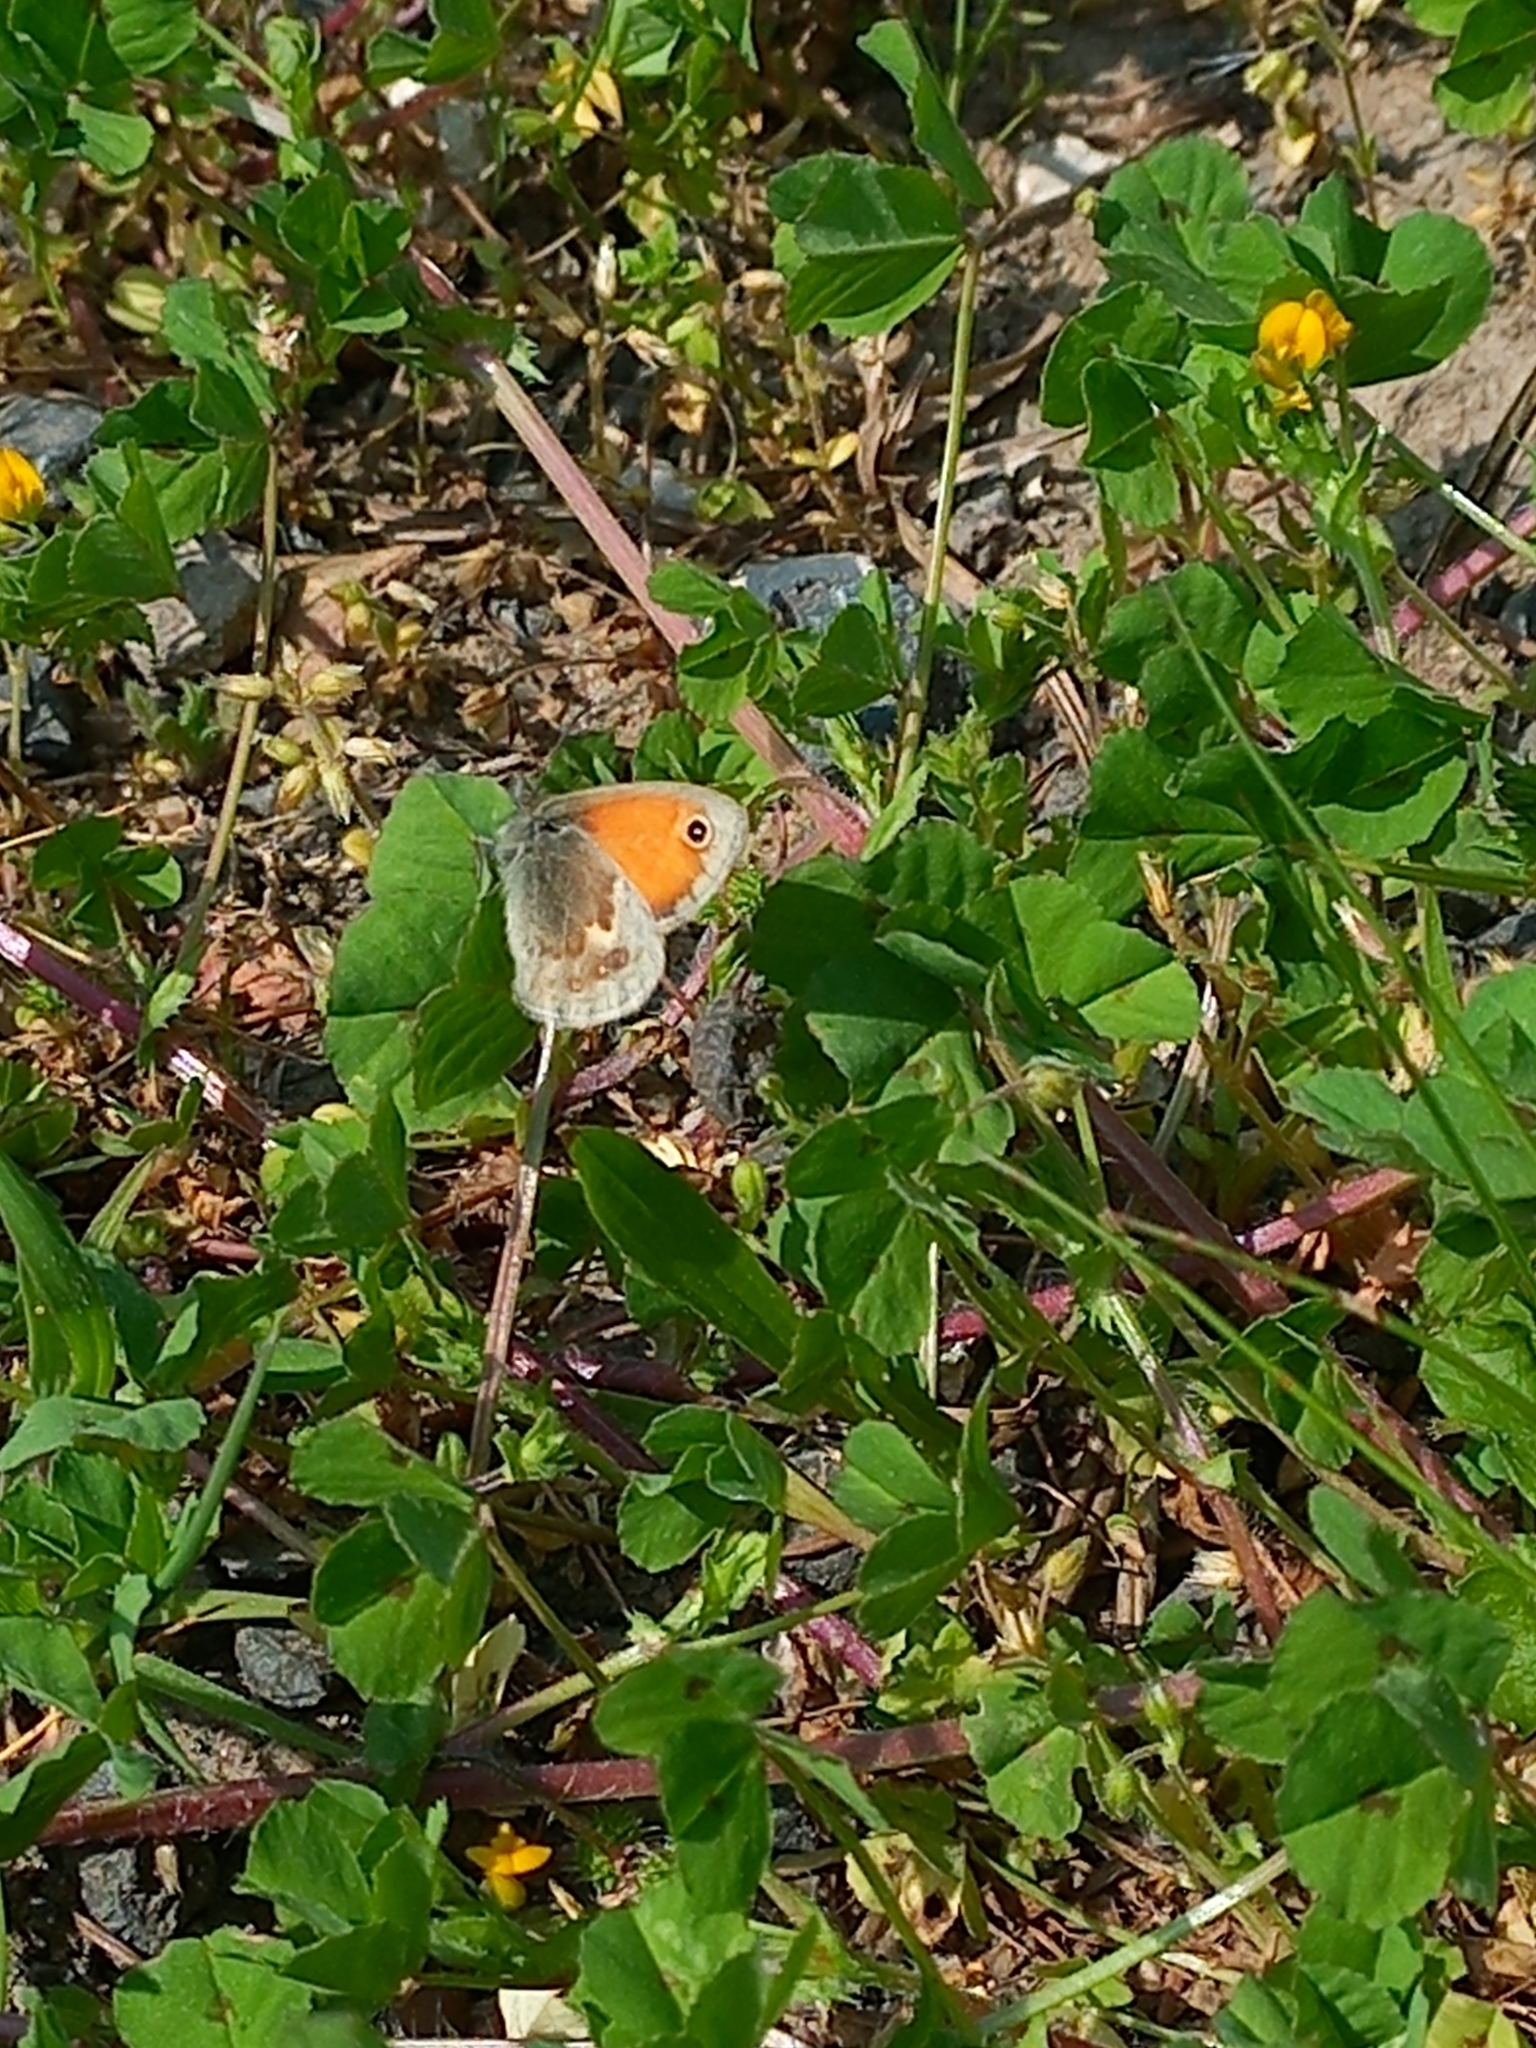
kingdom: Animalia
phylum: Arthropoda
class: Insecta
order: Lepidoptera
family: Nymphalidae
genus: Coenonympha
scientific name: Coenonympha pamphilus
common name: Small heath
